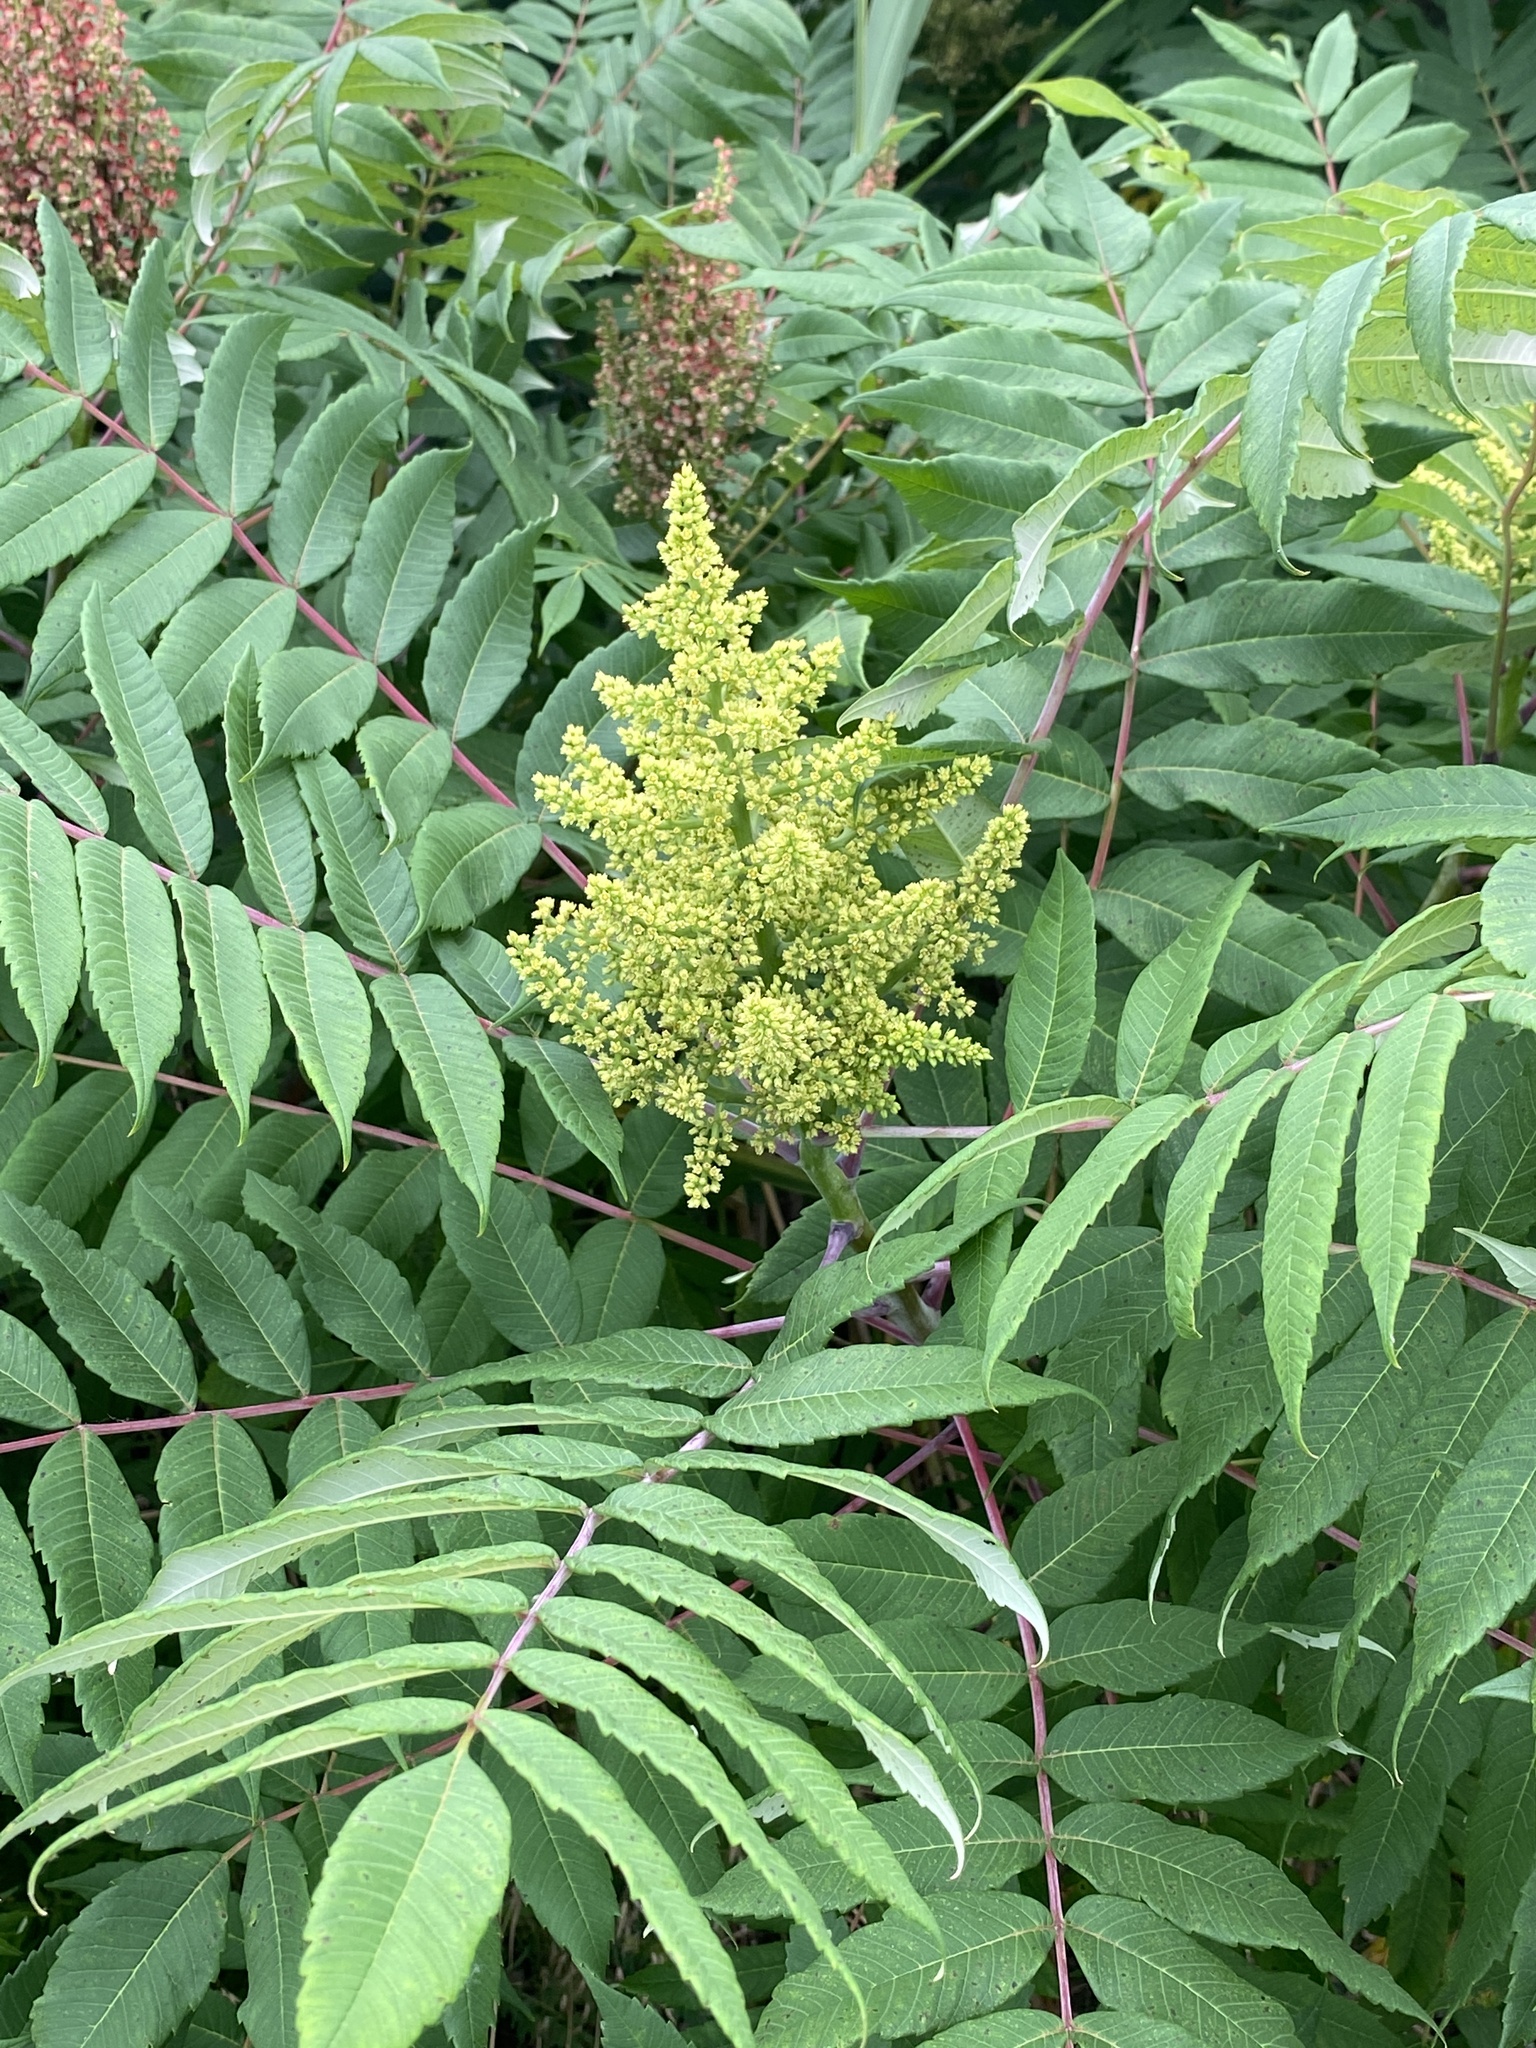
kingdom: Plantae
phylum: Tracheophyta
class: Magnoliopsida
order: Sapindales
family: Anacardiaceae
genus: Rhus
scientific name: Rhus glabra
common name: Scarlet sumac
